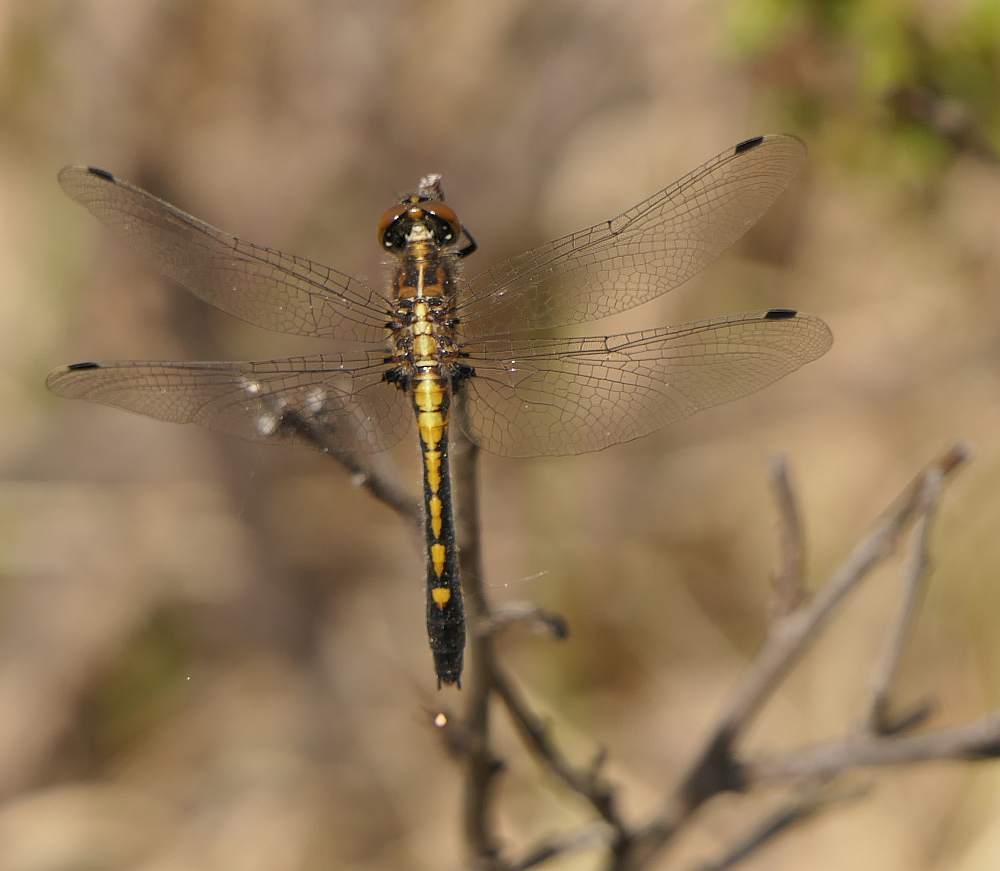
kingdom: Animalia
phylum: Arthropoda
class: Insecta
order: Odonata
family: Libellulidae
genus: Leucorrhinia
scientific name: Leucorrhinia intacta
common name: Dot-tailed whiteface
